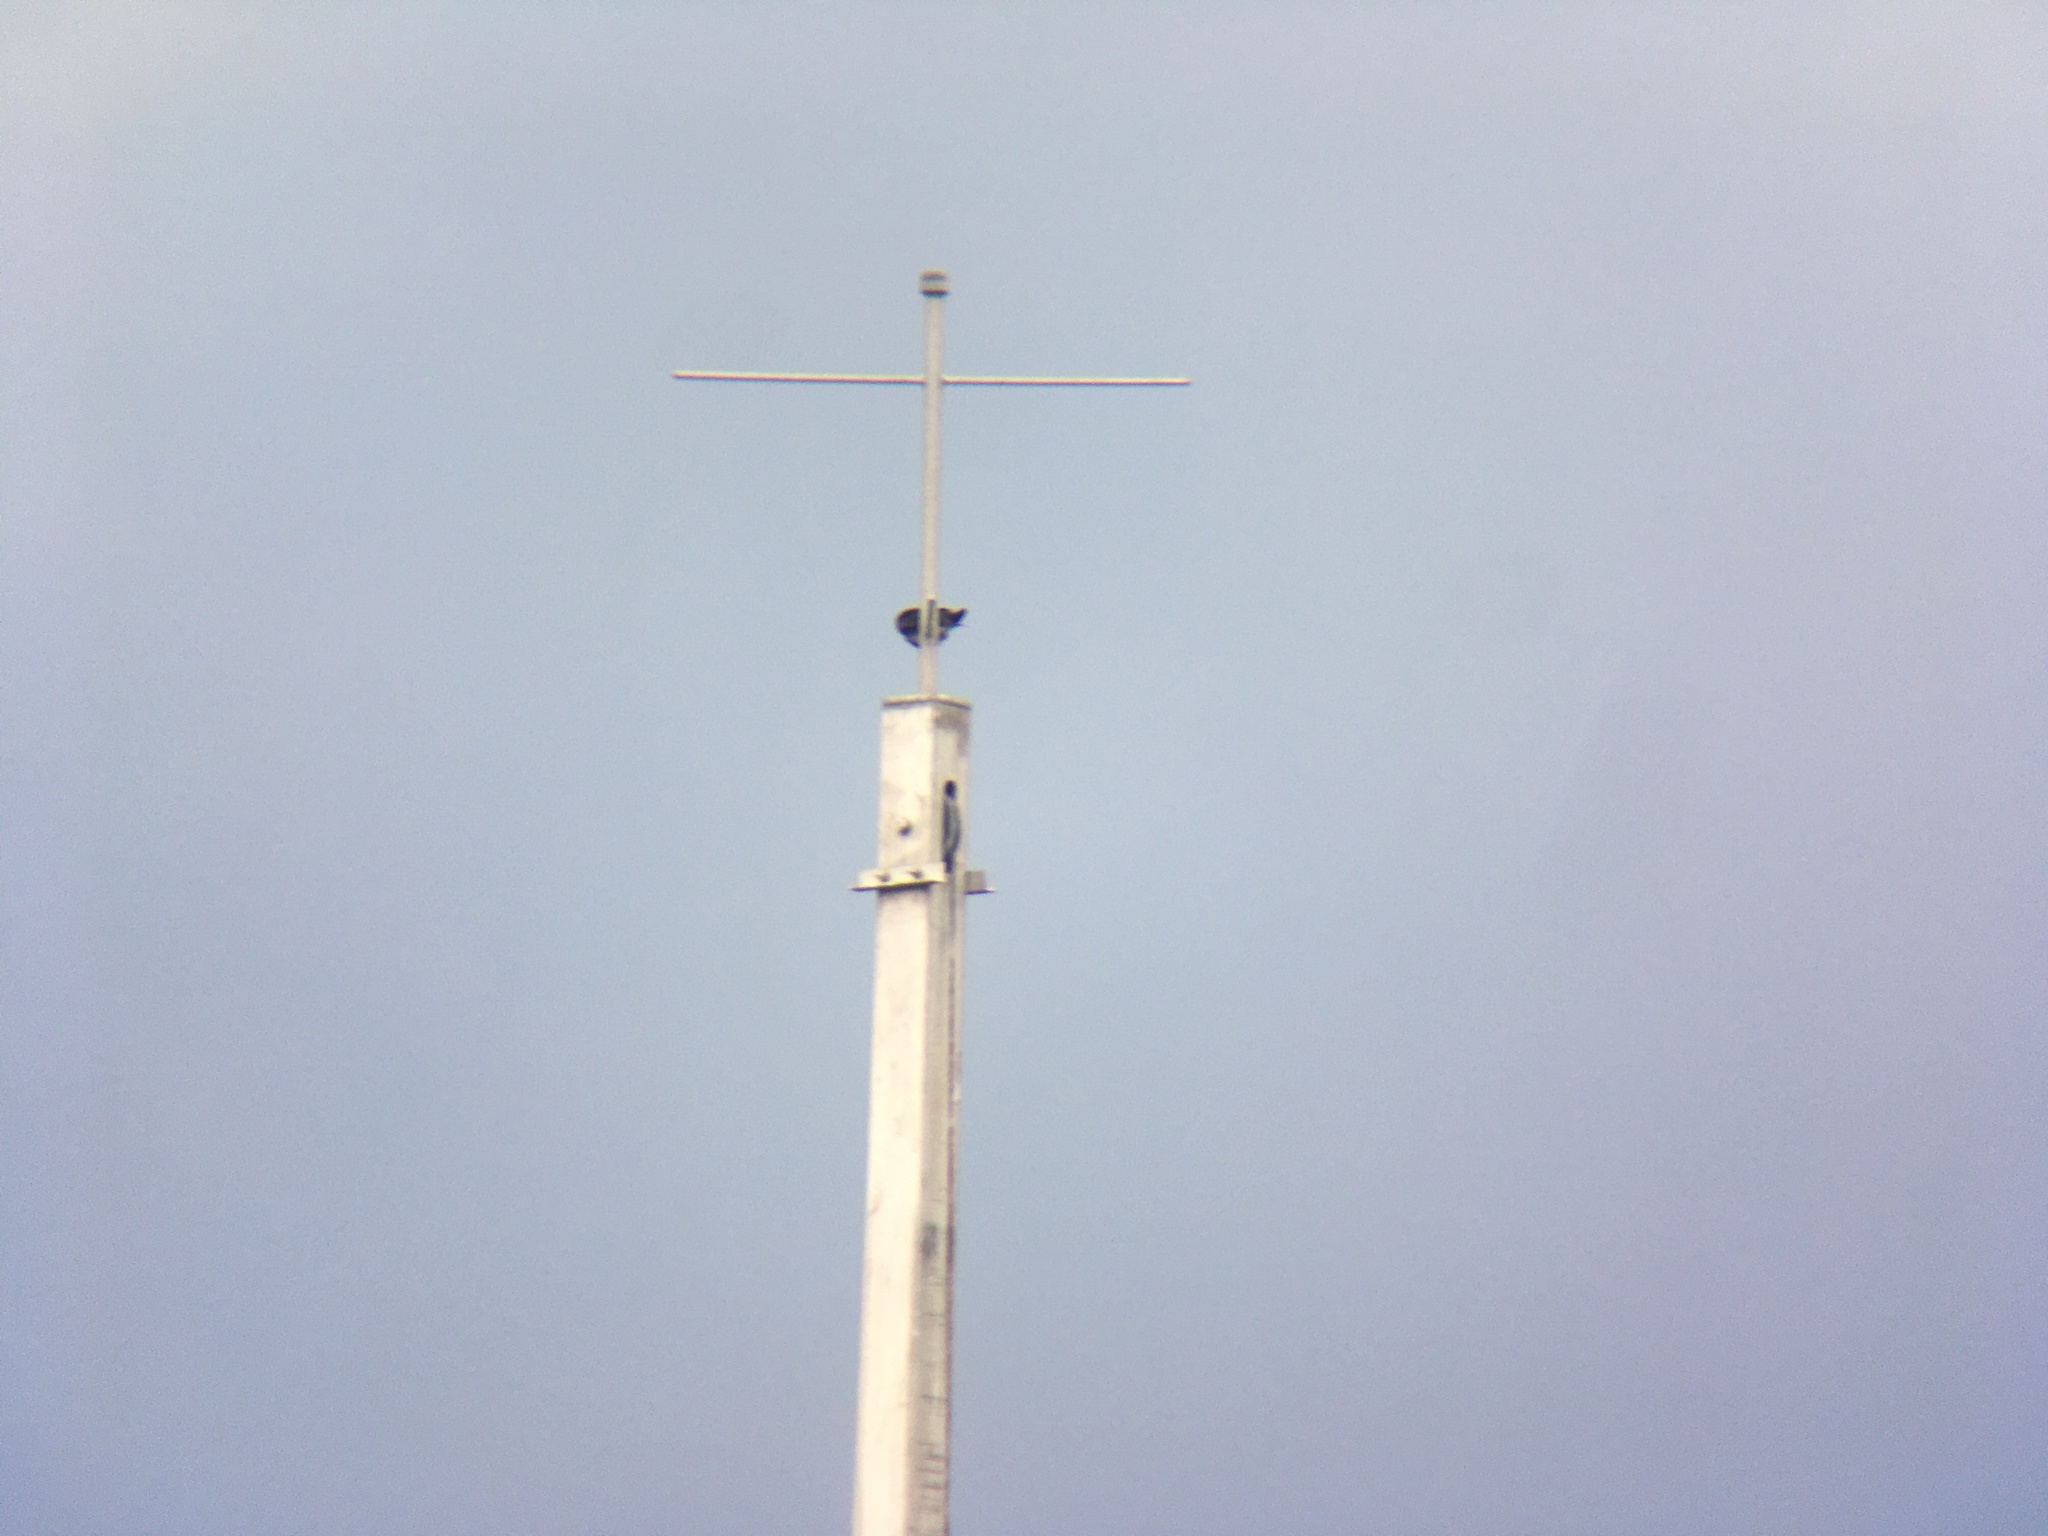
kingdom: Animalia
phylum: Chordata
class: Aves
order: Passeriformes
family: Hirundinidae
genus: Progne
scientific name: Progne subis
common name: Purple martin
